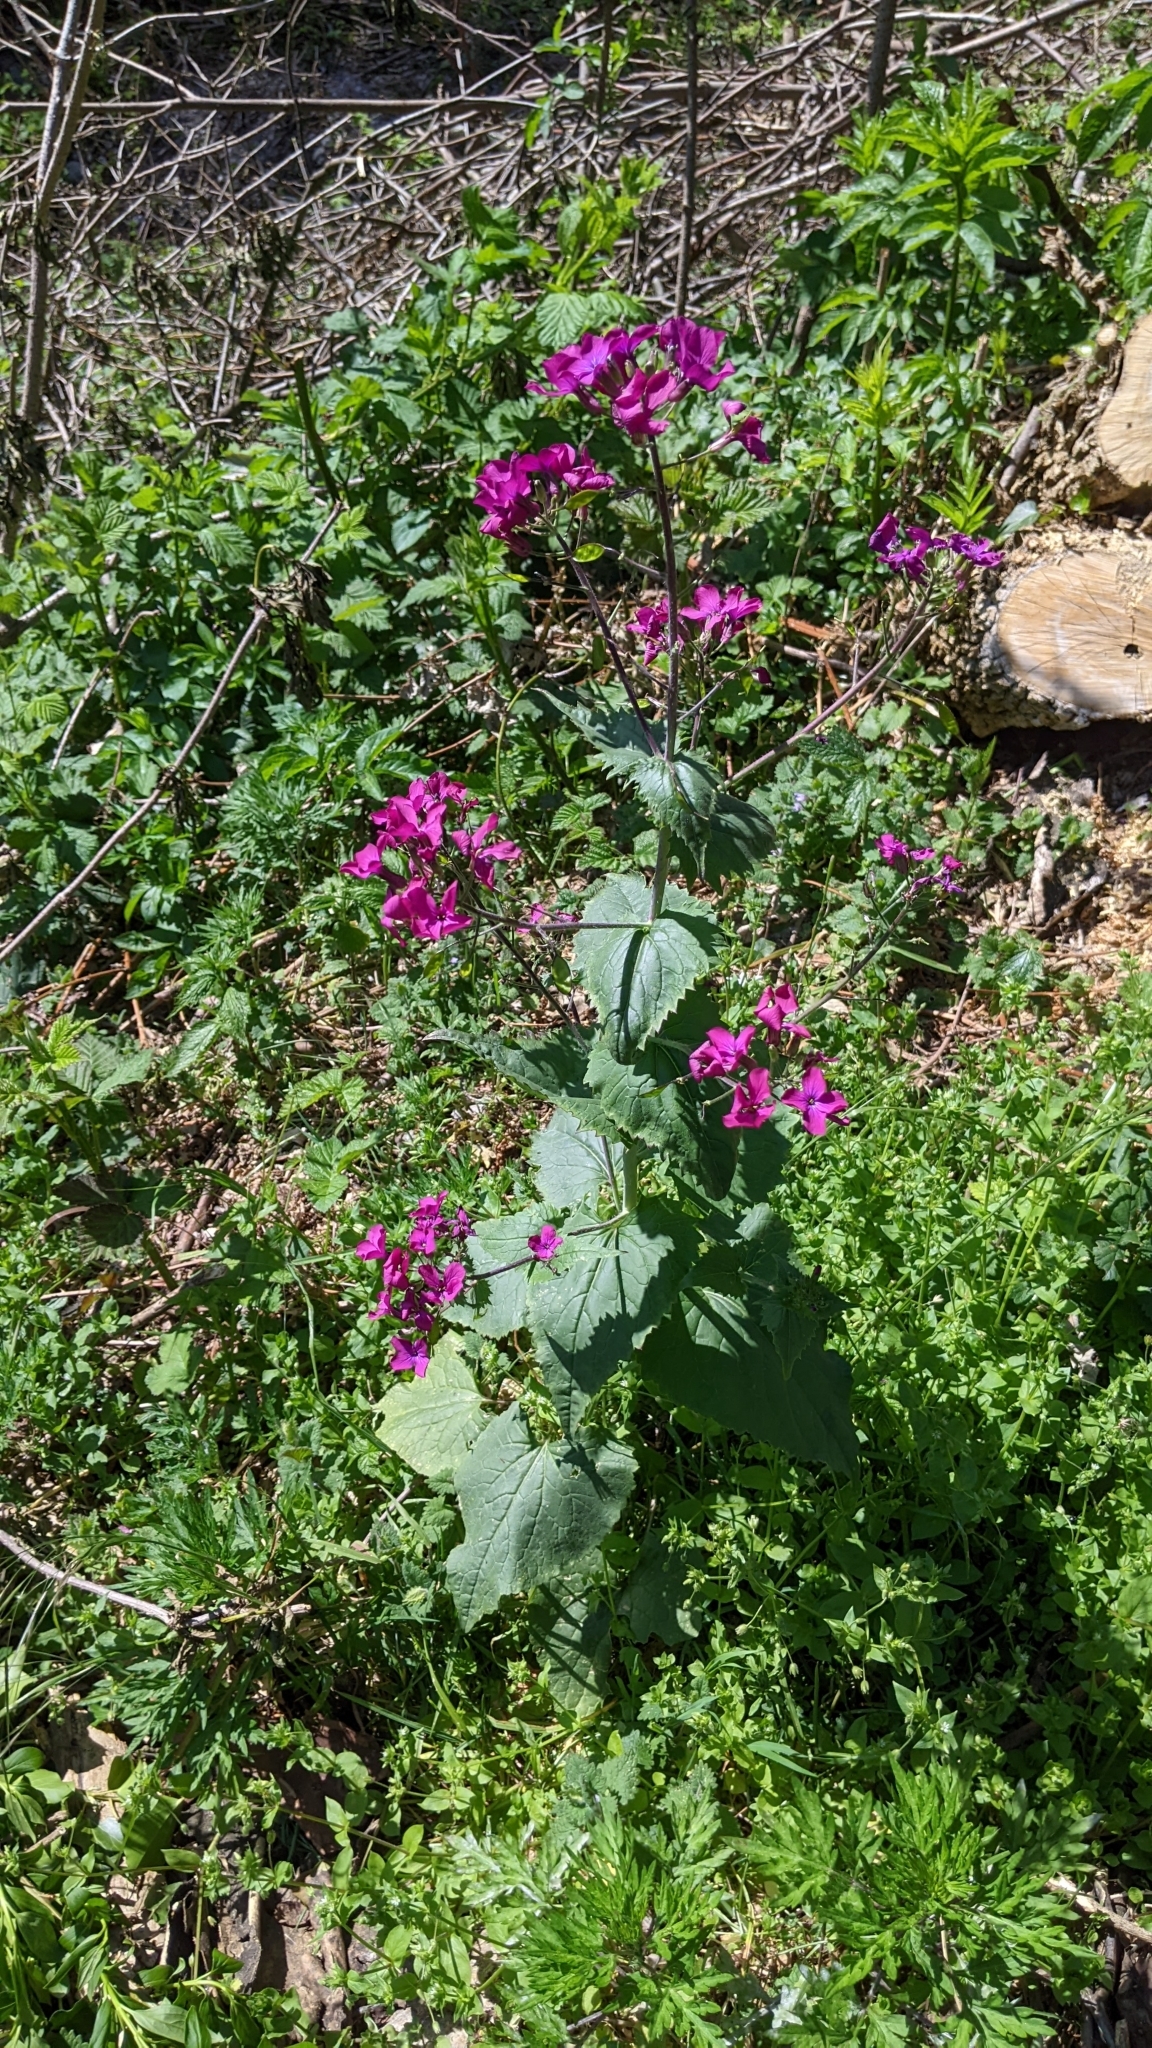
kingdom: Plantae
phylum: Tracheophyta
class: Magnoliopsida
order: Brassicales
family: Brassicaceae
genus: Lunaria
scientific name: Lunaria annua
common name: Honesty
